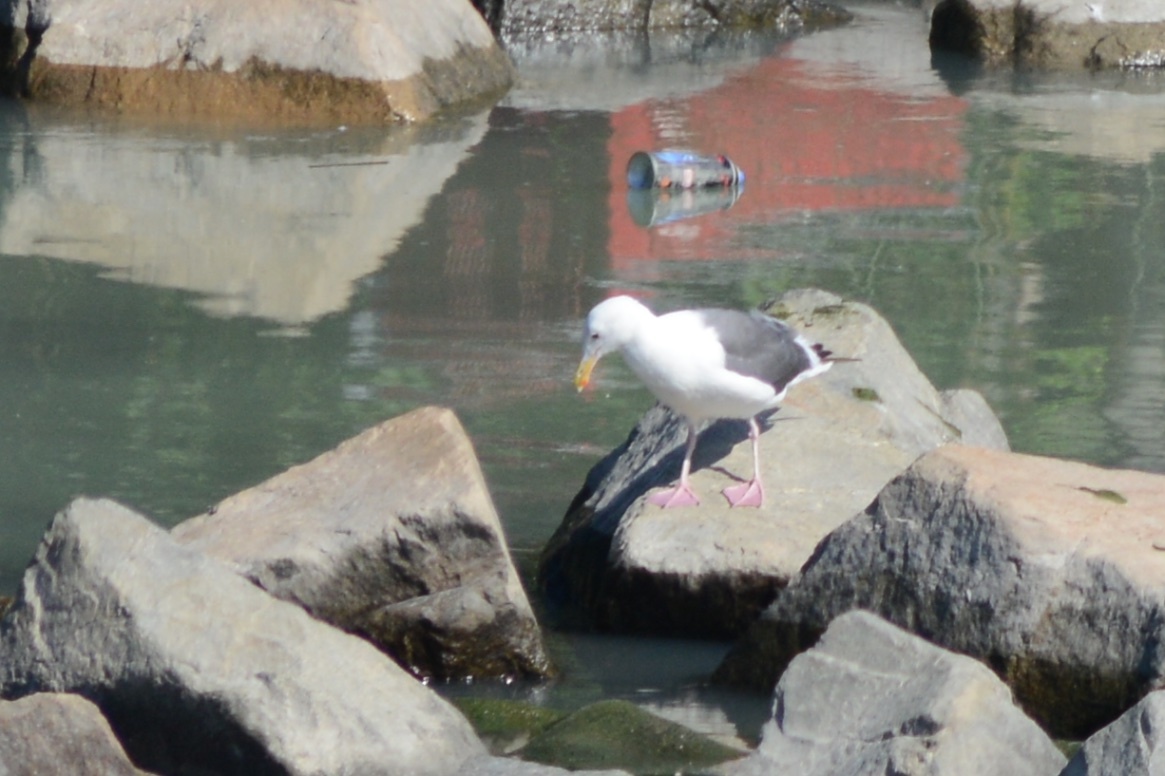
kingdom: Animalia
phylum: Chordata
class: Aves
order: Charadriiformes
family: Laridae
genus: Larus
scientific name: Larus occidentalis
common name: Western gull
